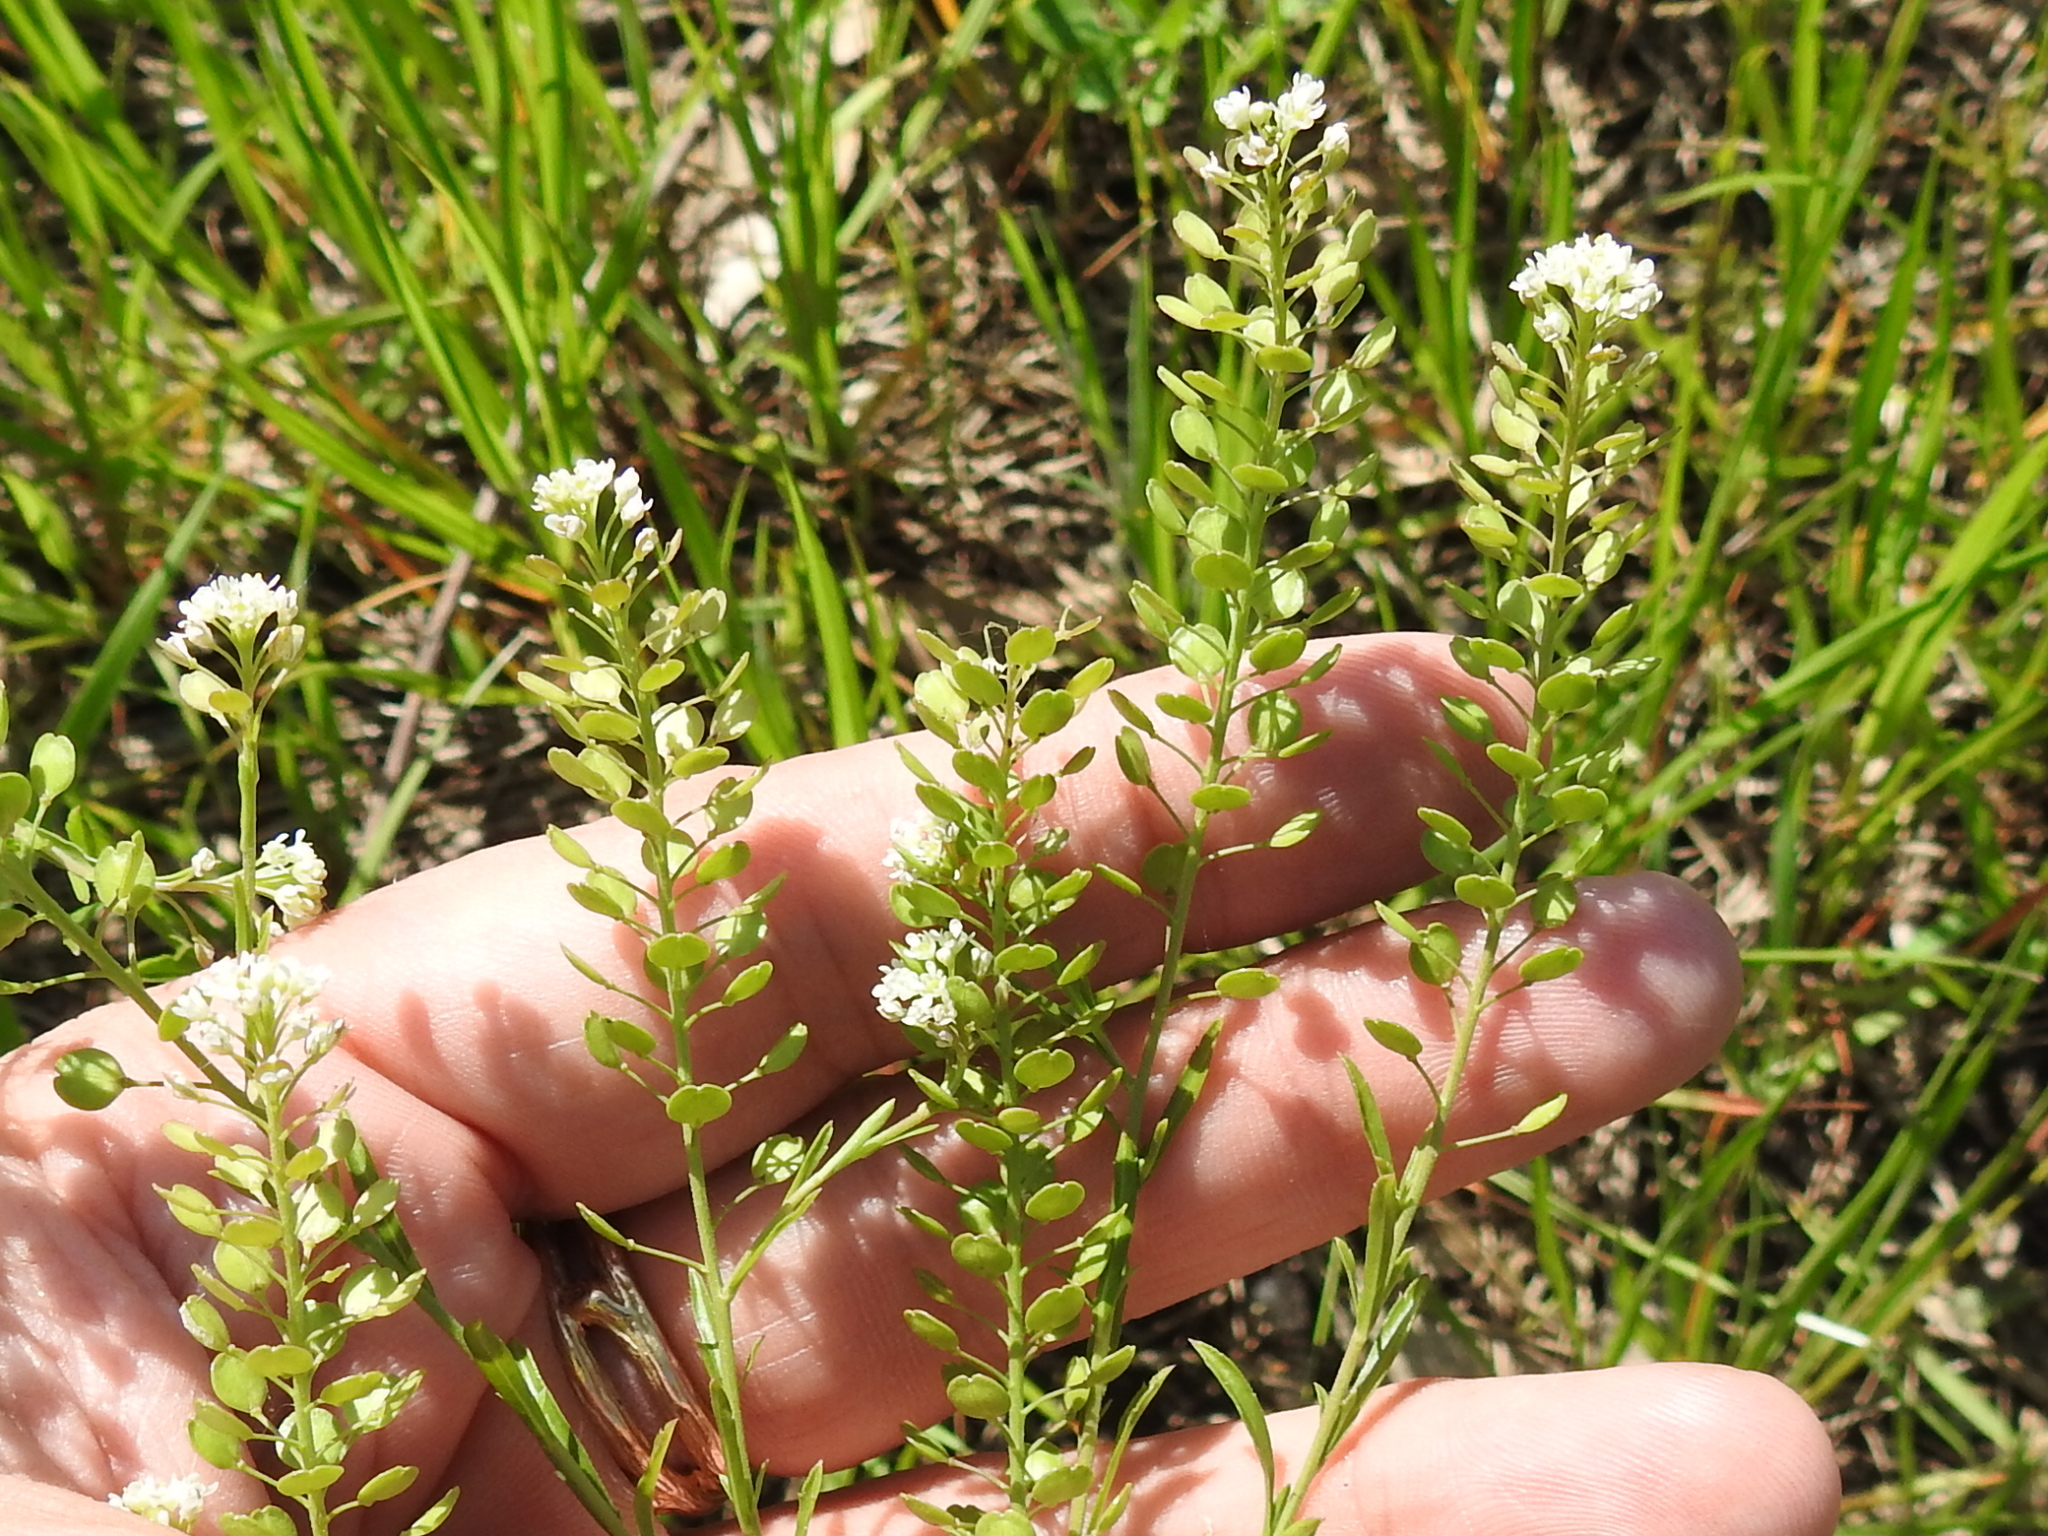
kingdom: Plantae
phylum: Tracheophyta
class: Magnoliopsida
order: Brassicales
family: Brassicaceae
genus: Lepidium
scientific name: Lepidium virginicum
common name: Least pepperwort
